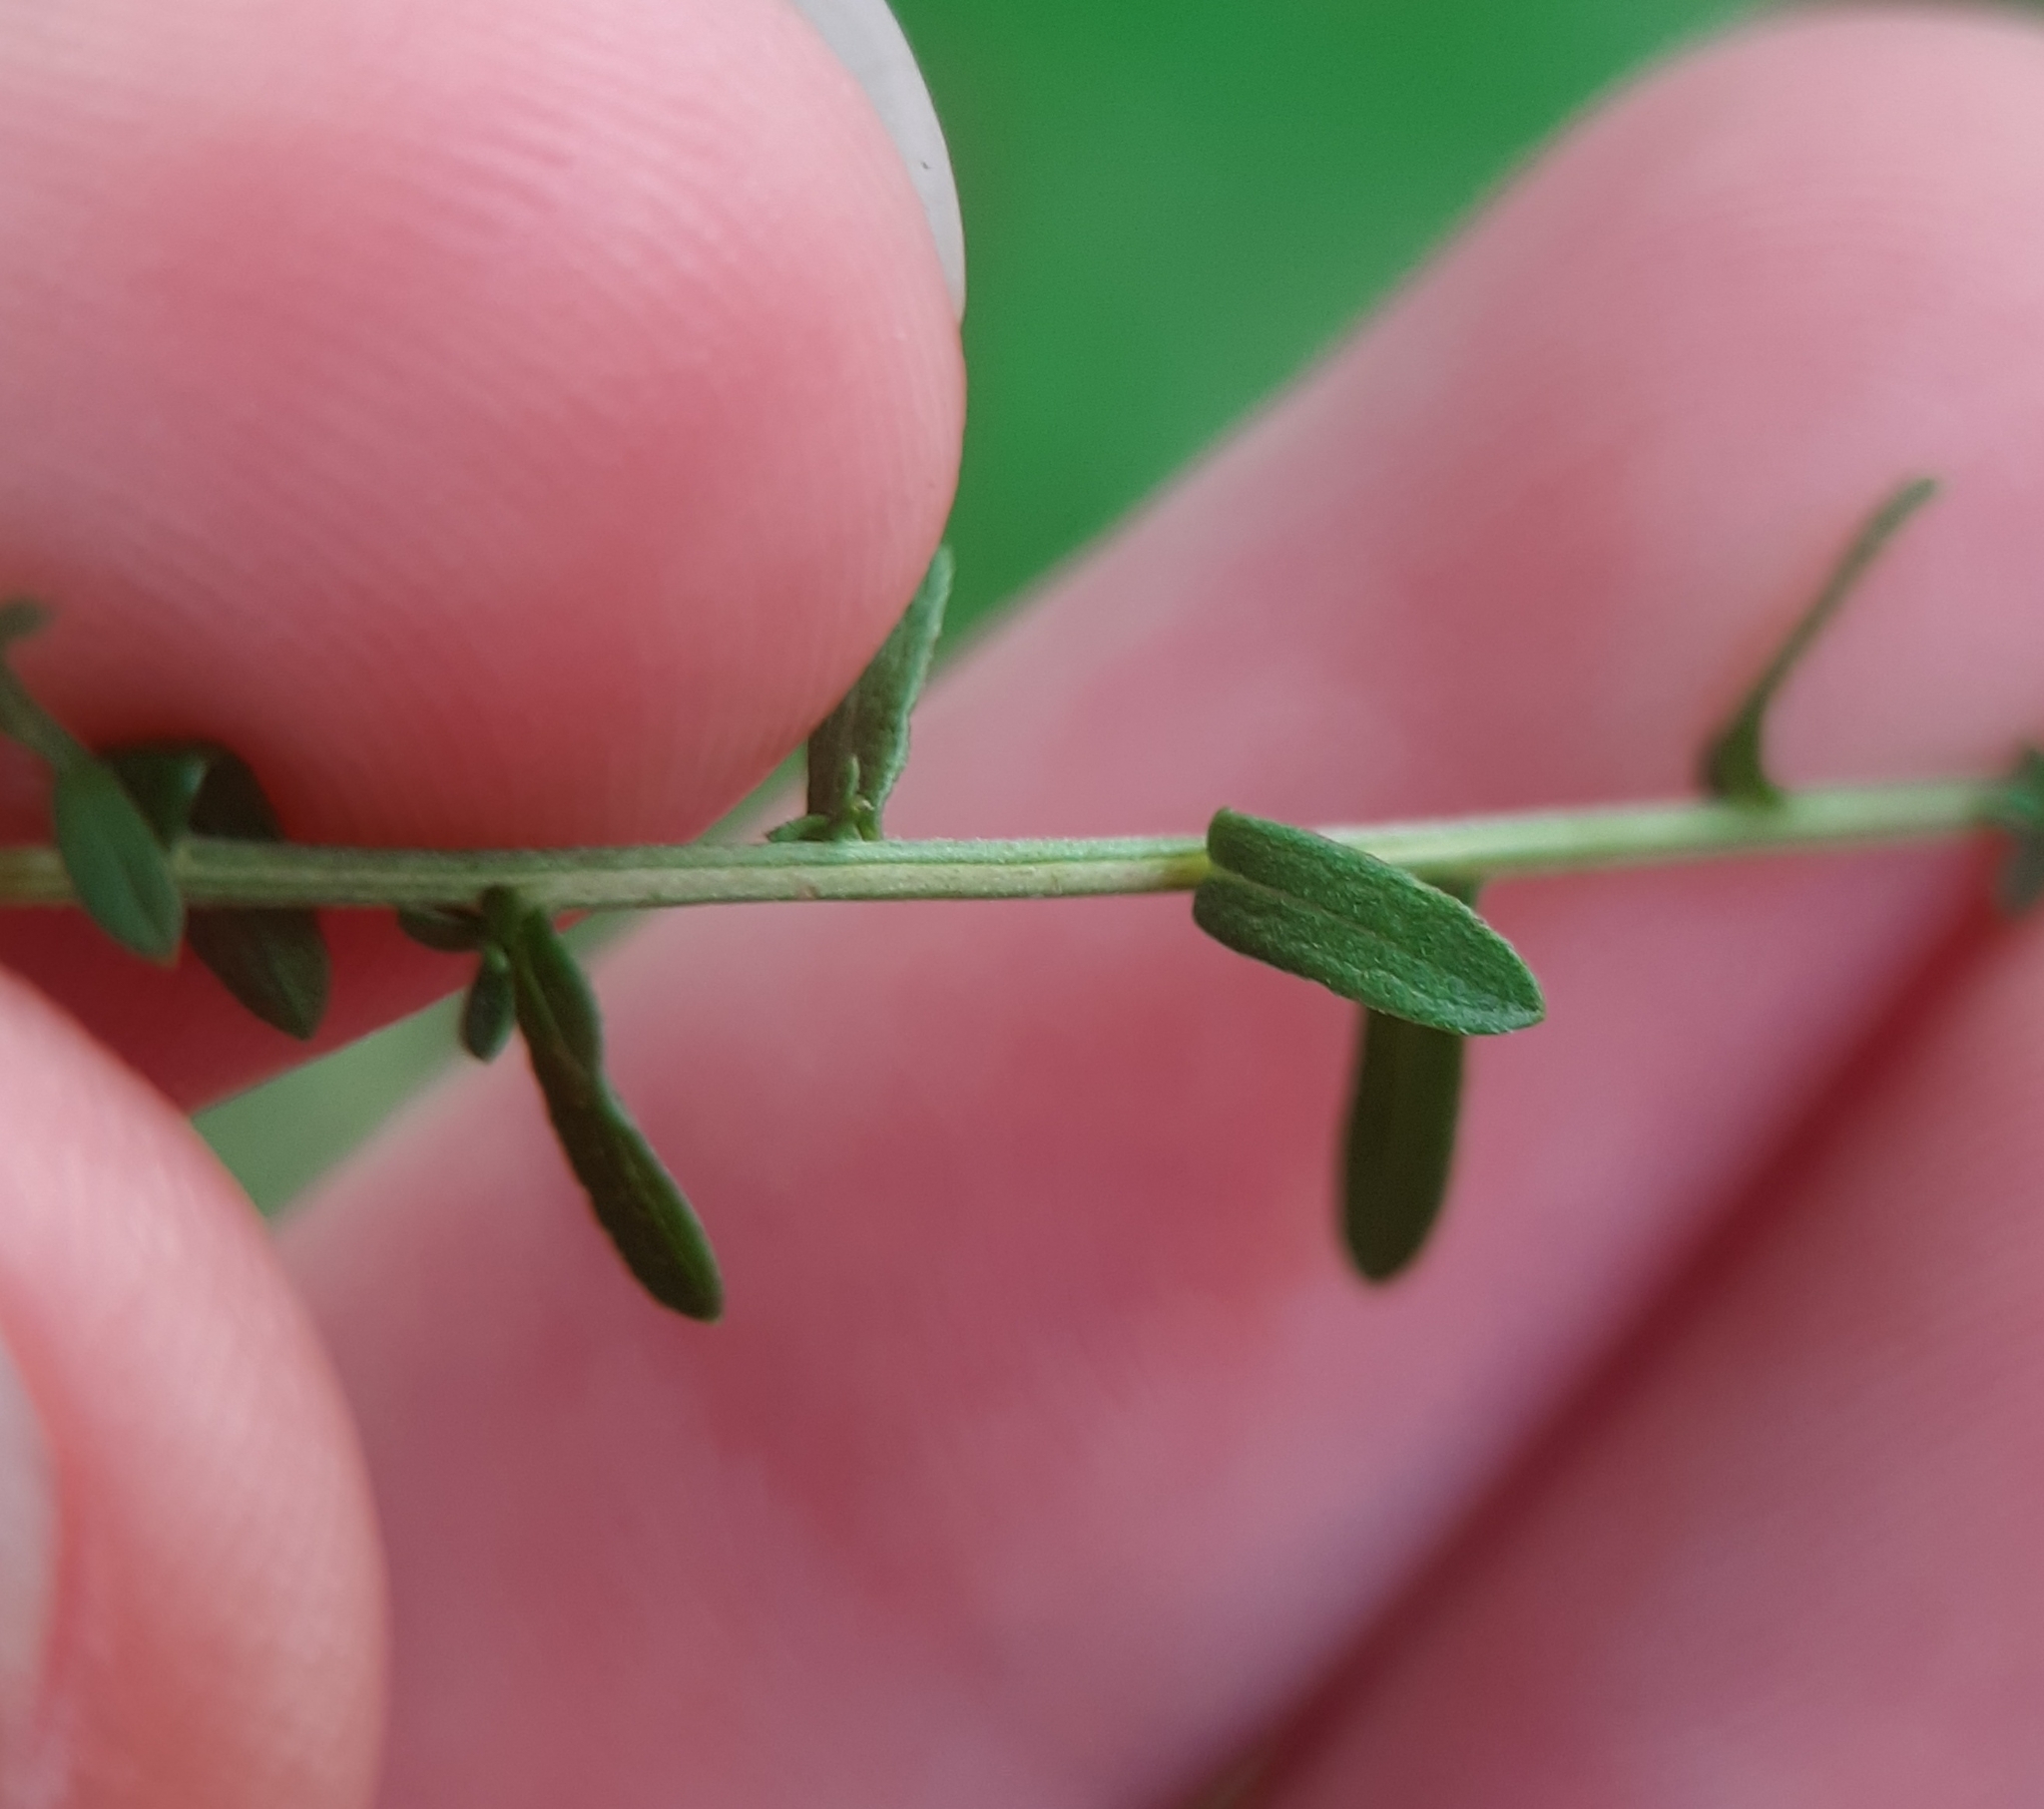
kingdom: Plantae
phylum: Tracheophyta
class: Magnoliopsida
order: Asterales
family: Asteraceae
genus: Symphyotrichum
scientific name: Symphyotrichum dumosum
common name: Bushy aster
